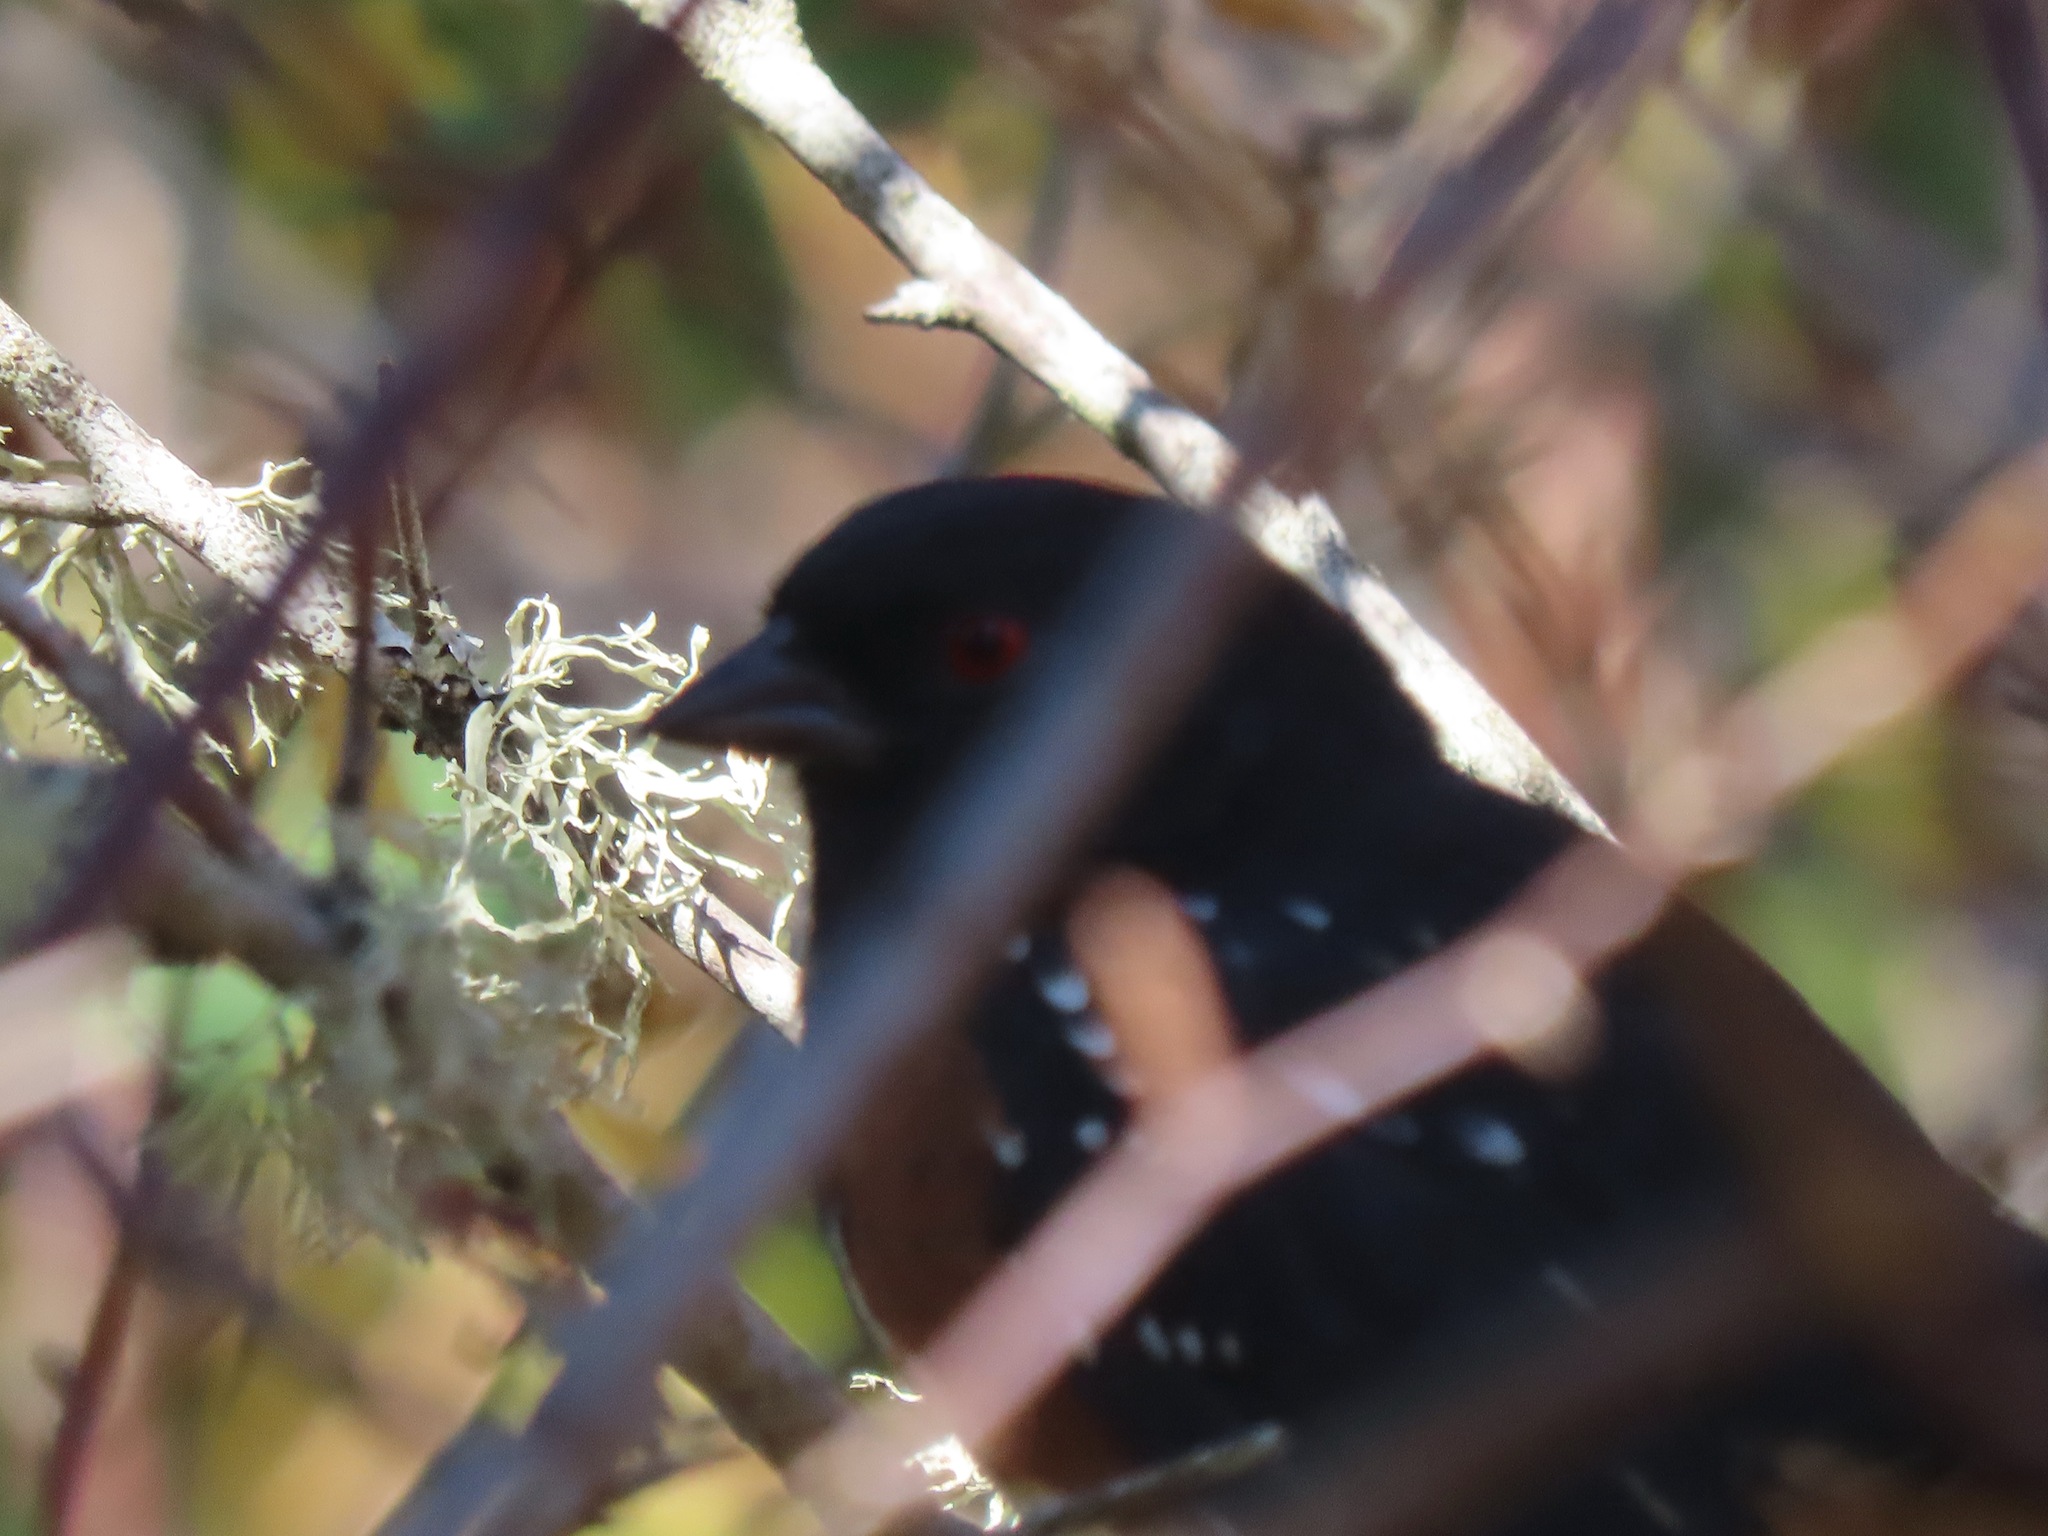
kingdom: Animalia
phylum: Chordata
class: Aves
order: Passeriformes
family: Passerellidae
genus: Pipilo
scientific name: Pipilo maculatus
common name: Spotted towhee
